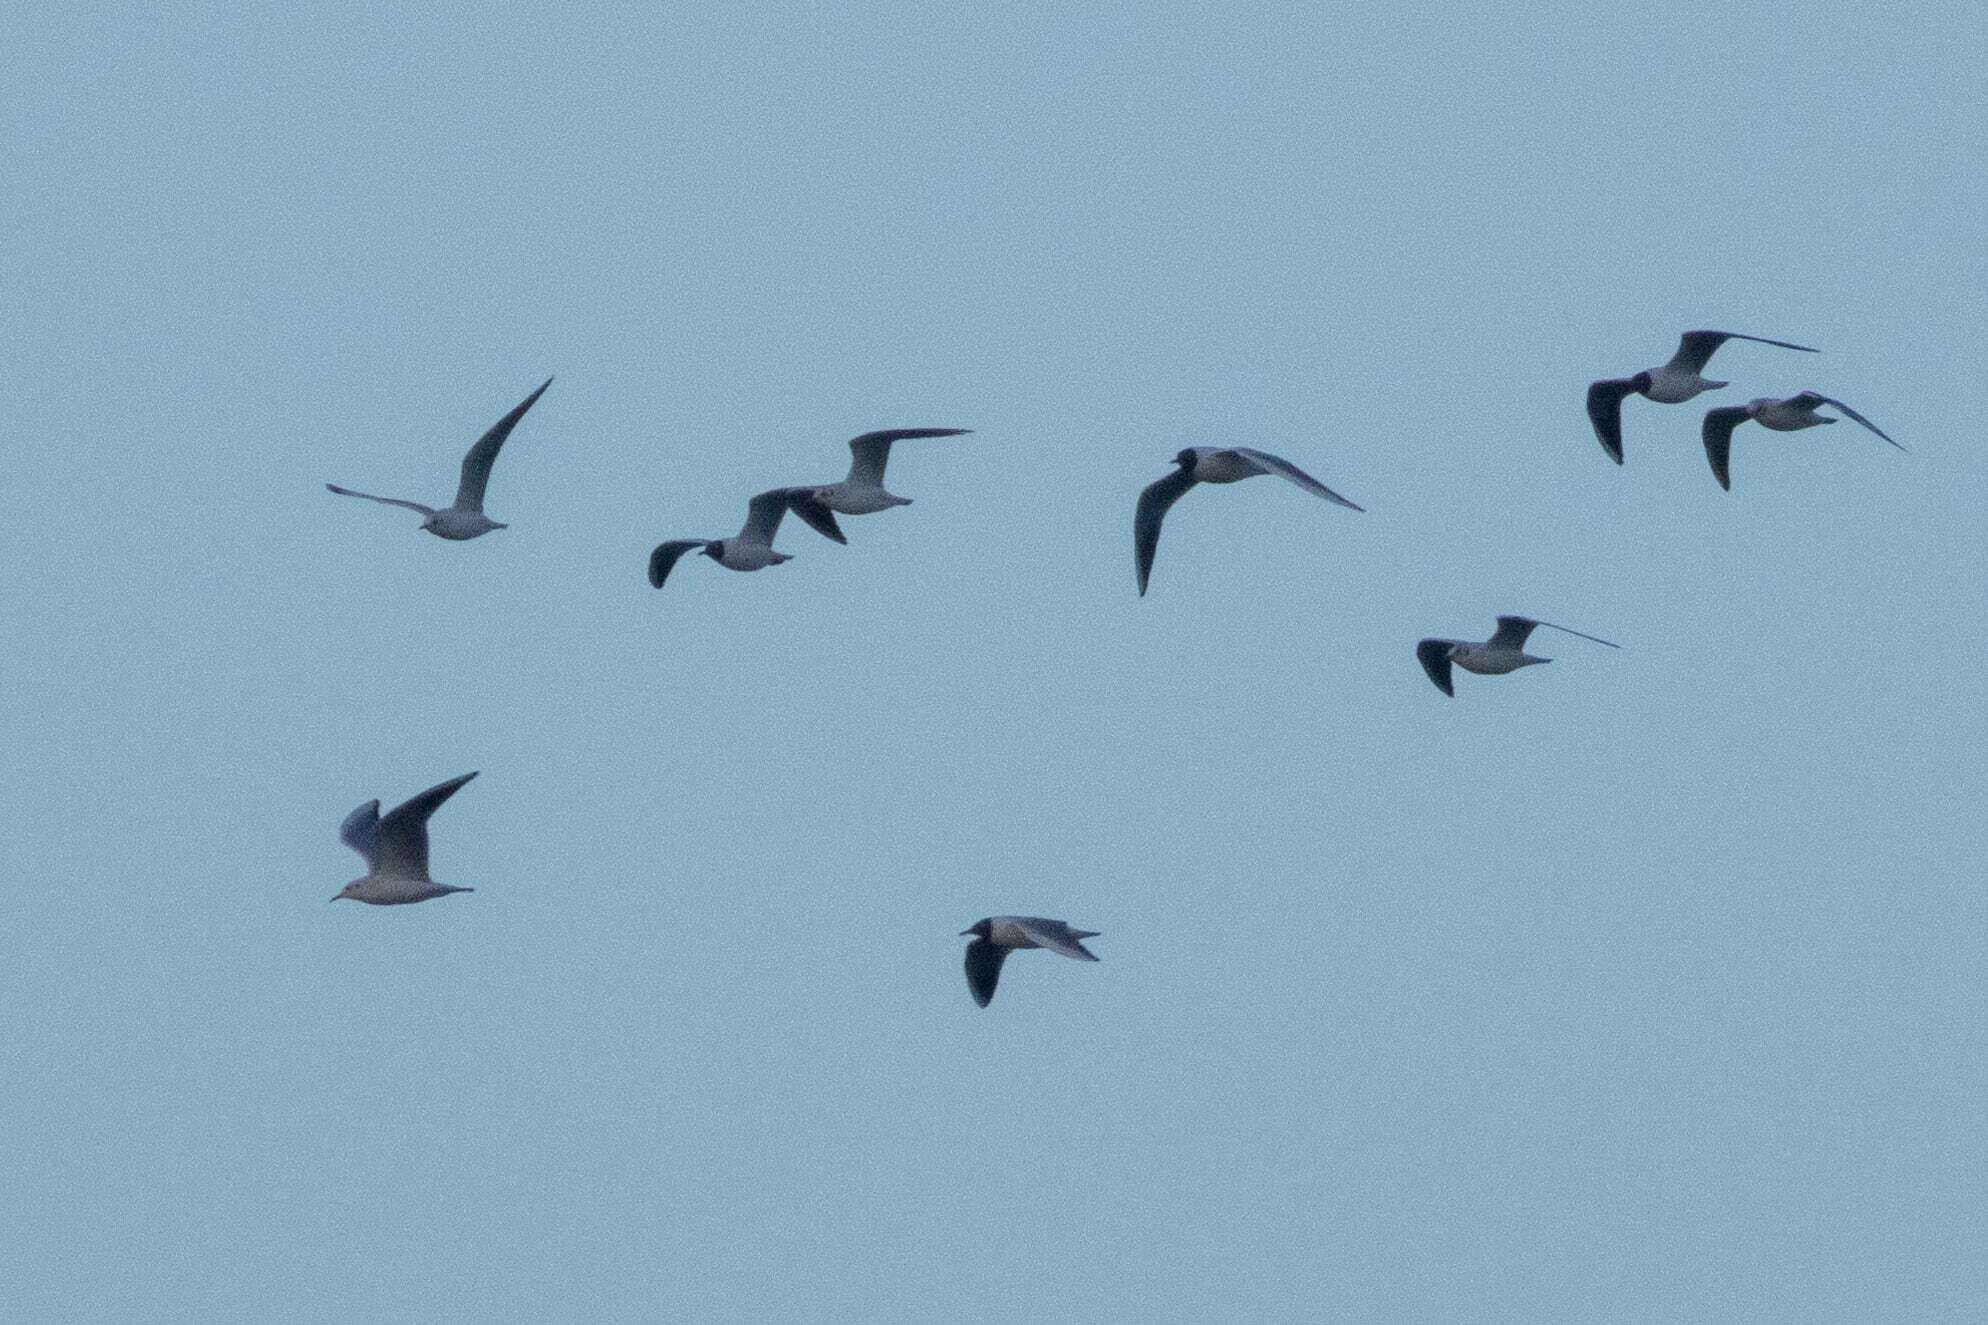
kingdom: Animalia
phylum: Chordata
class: Aves
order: Charadriiformes
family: Laridae
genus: Chroicocephalus
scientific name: Chroicocephalus ridibundus
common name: Black-headed gull
